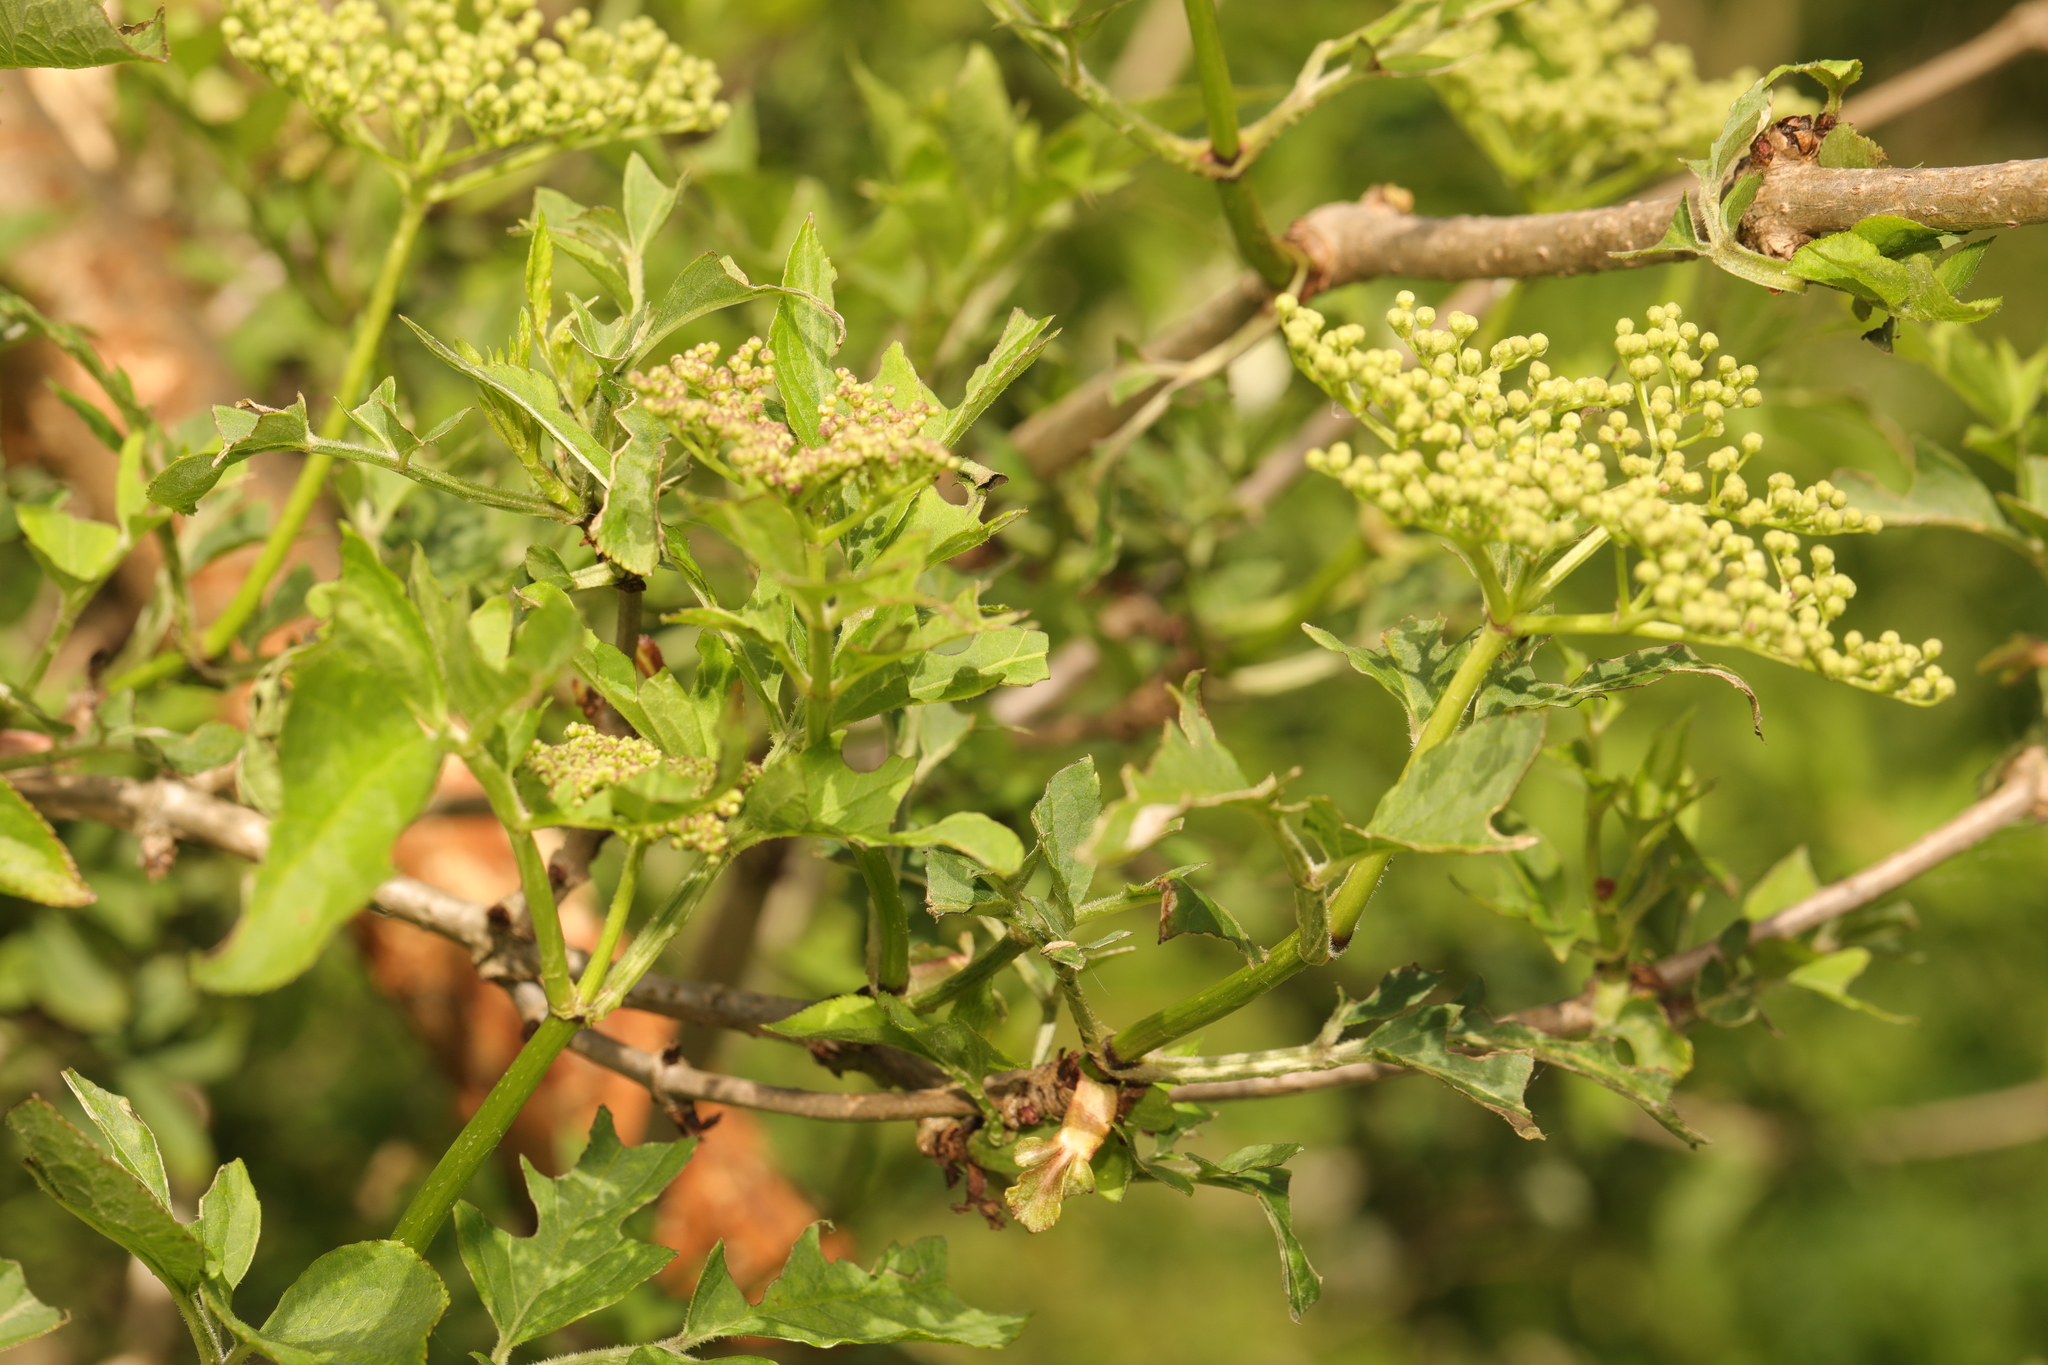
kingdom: Plantae
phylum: Tracheophyta
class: Magnoliopsida
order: Dipsacales
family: Viburnaceae
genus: Sambucus
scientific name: Sambucus nigra
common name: Elder
